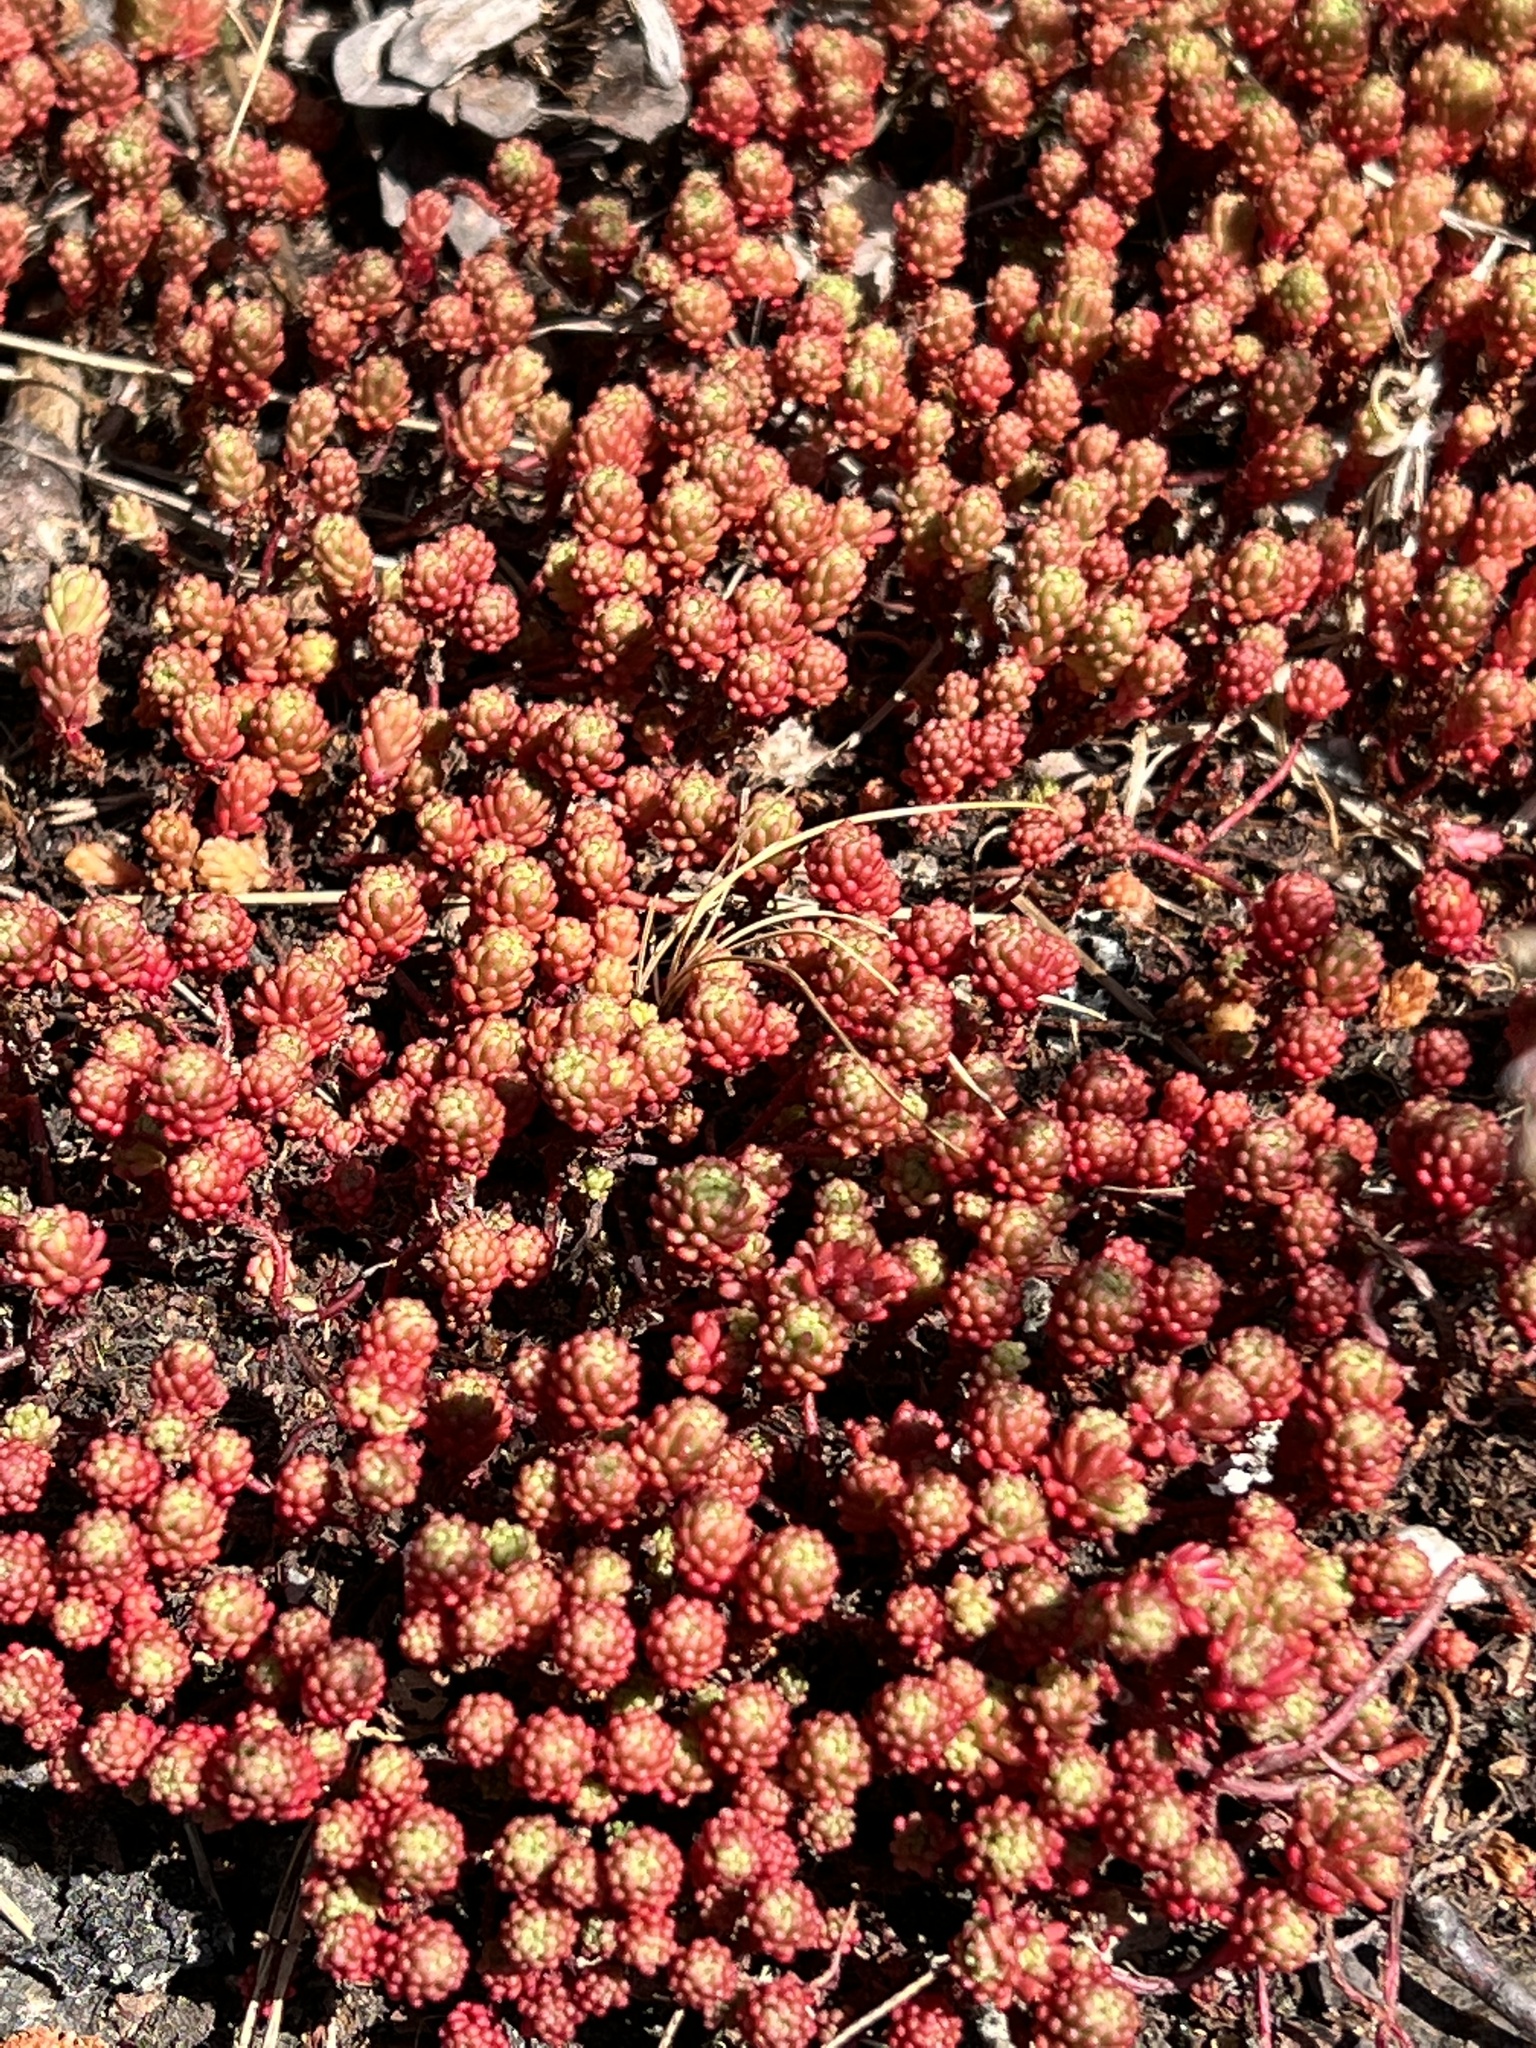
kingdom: Plantae
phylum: Tracheophyta
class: Magnoliopsida
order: Saxifragales
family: Crassulaceae
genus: Sedum
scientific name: Sedum lydium
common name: Least stonecrop
